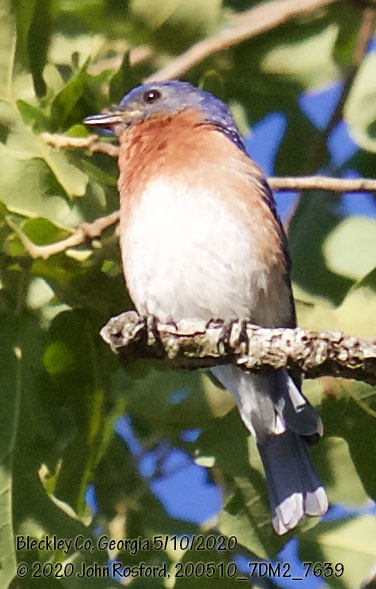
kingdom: Animalia
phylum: Chordata
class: Aves
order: Passeriformes
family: Turdidae
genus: Sialia
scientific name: Sialia sialis
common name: Eastern bluebird
